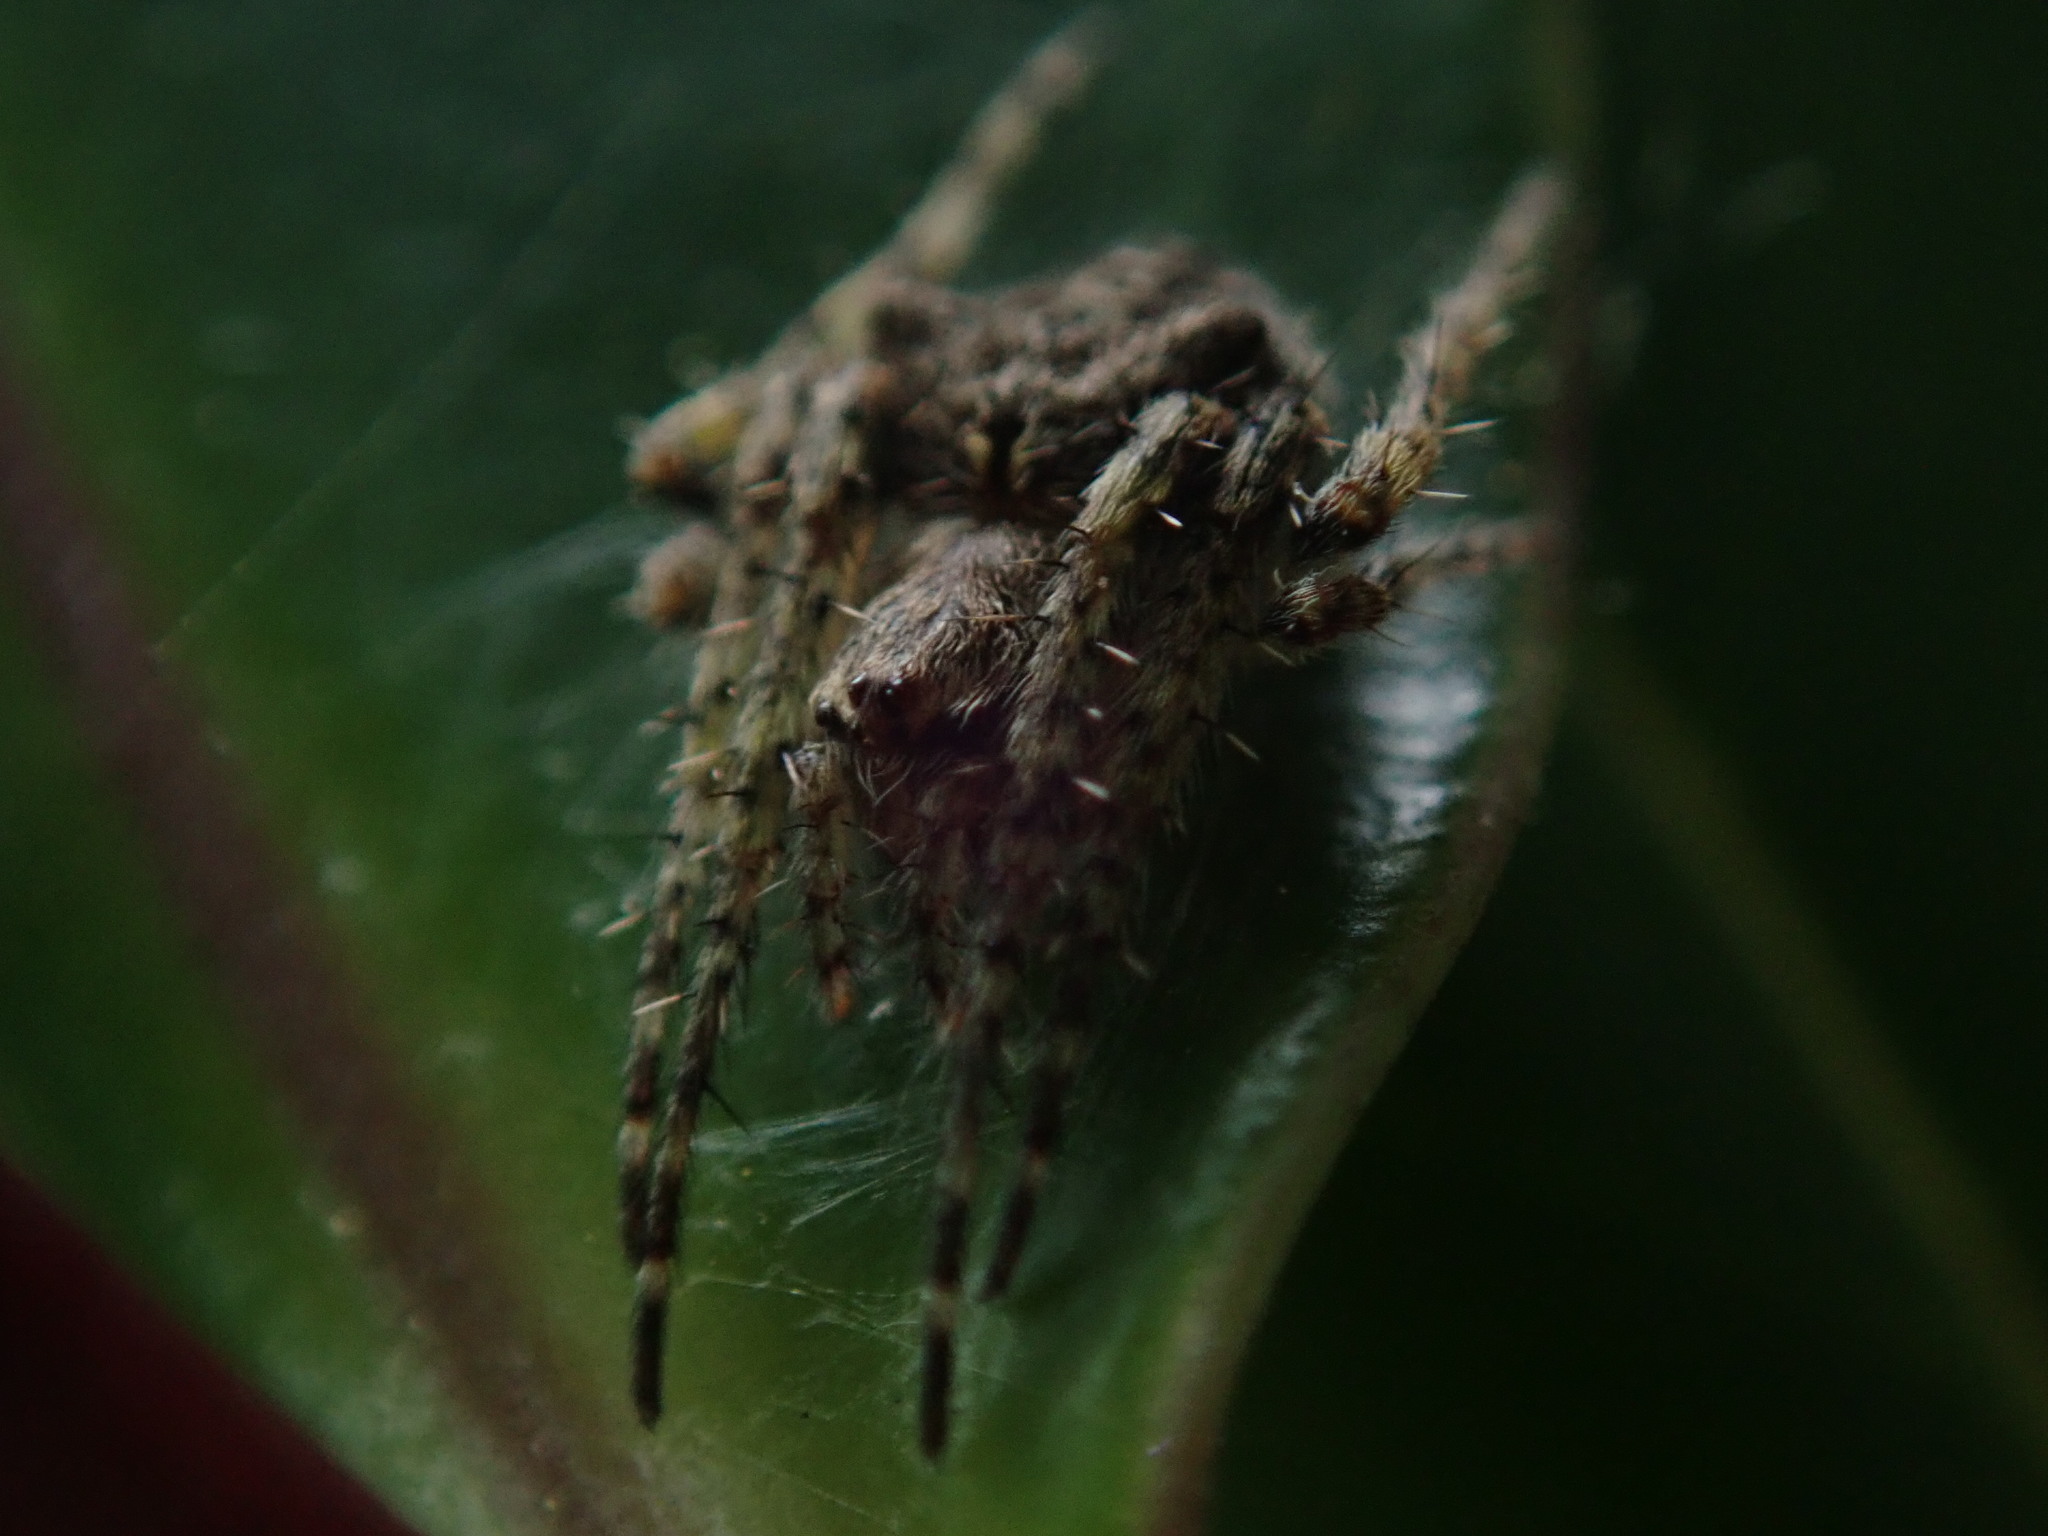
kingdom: Animalia
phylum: Arthropoda
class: Arachnida
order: Araneae
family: Araneidae
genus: Eriophora
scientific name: Eriophora pustulosa
